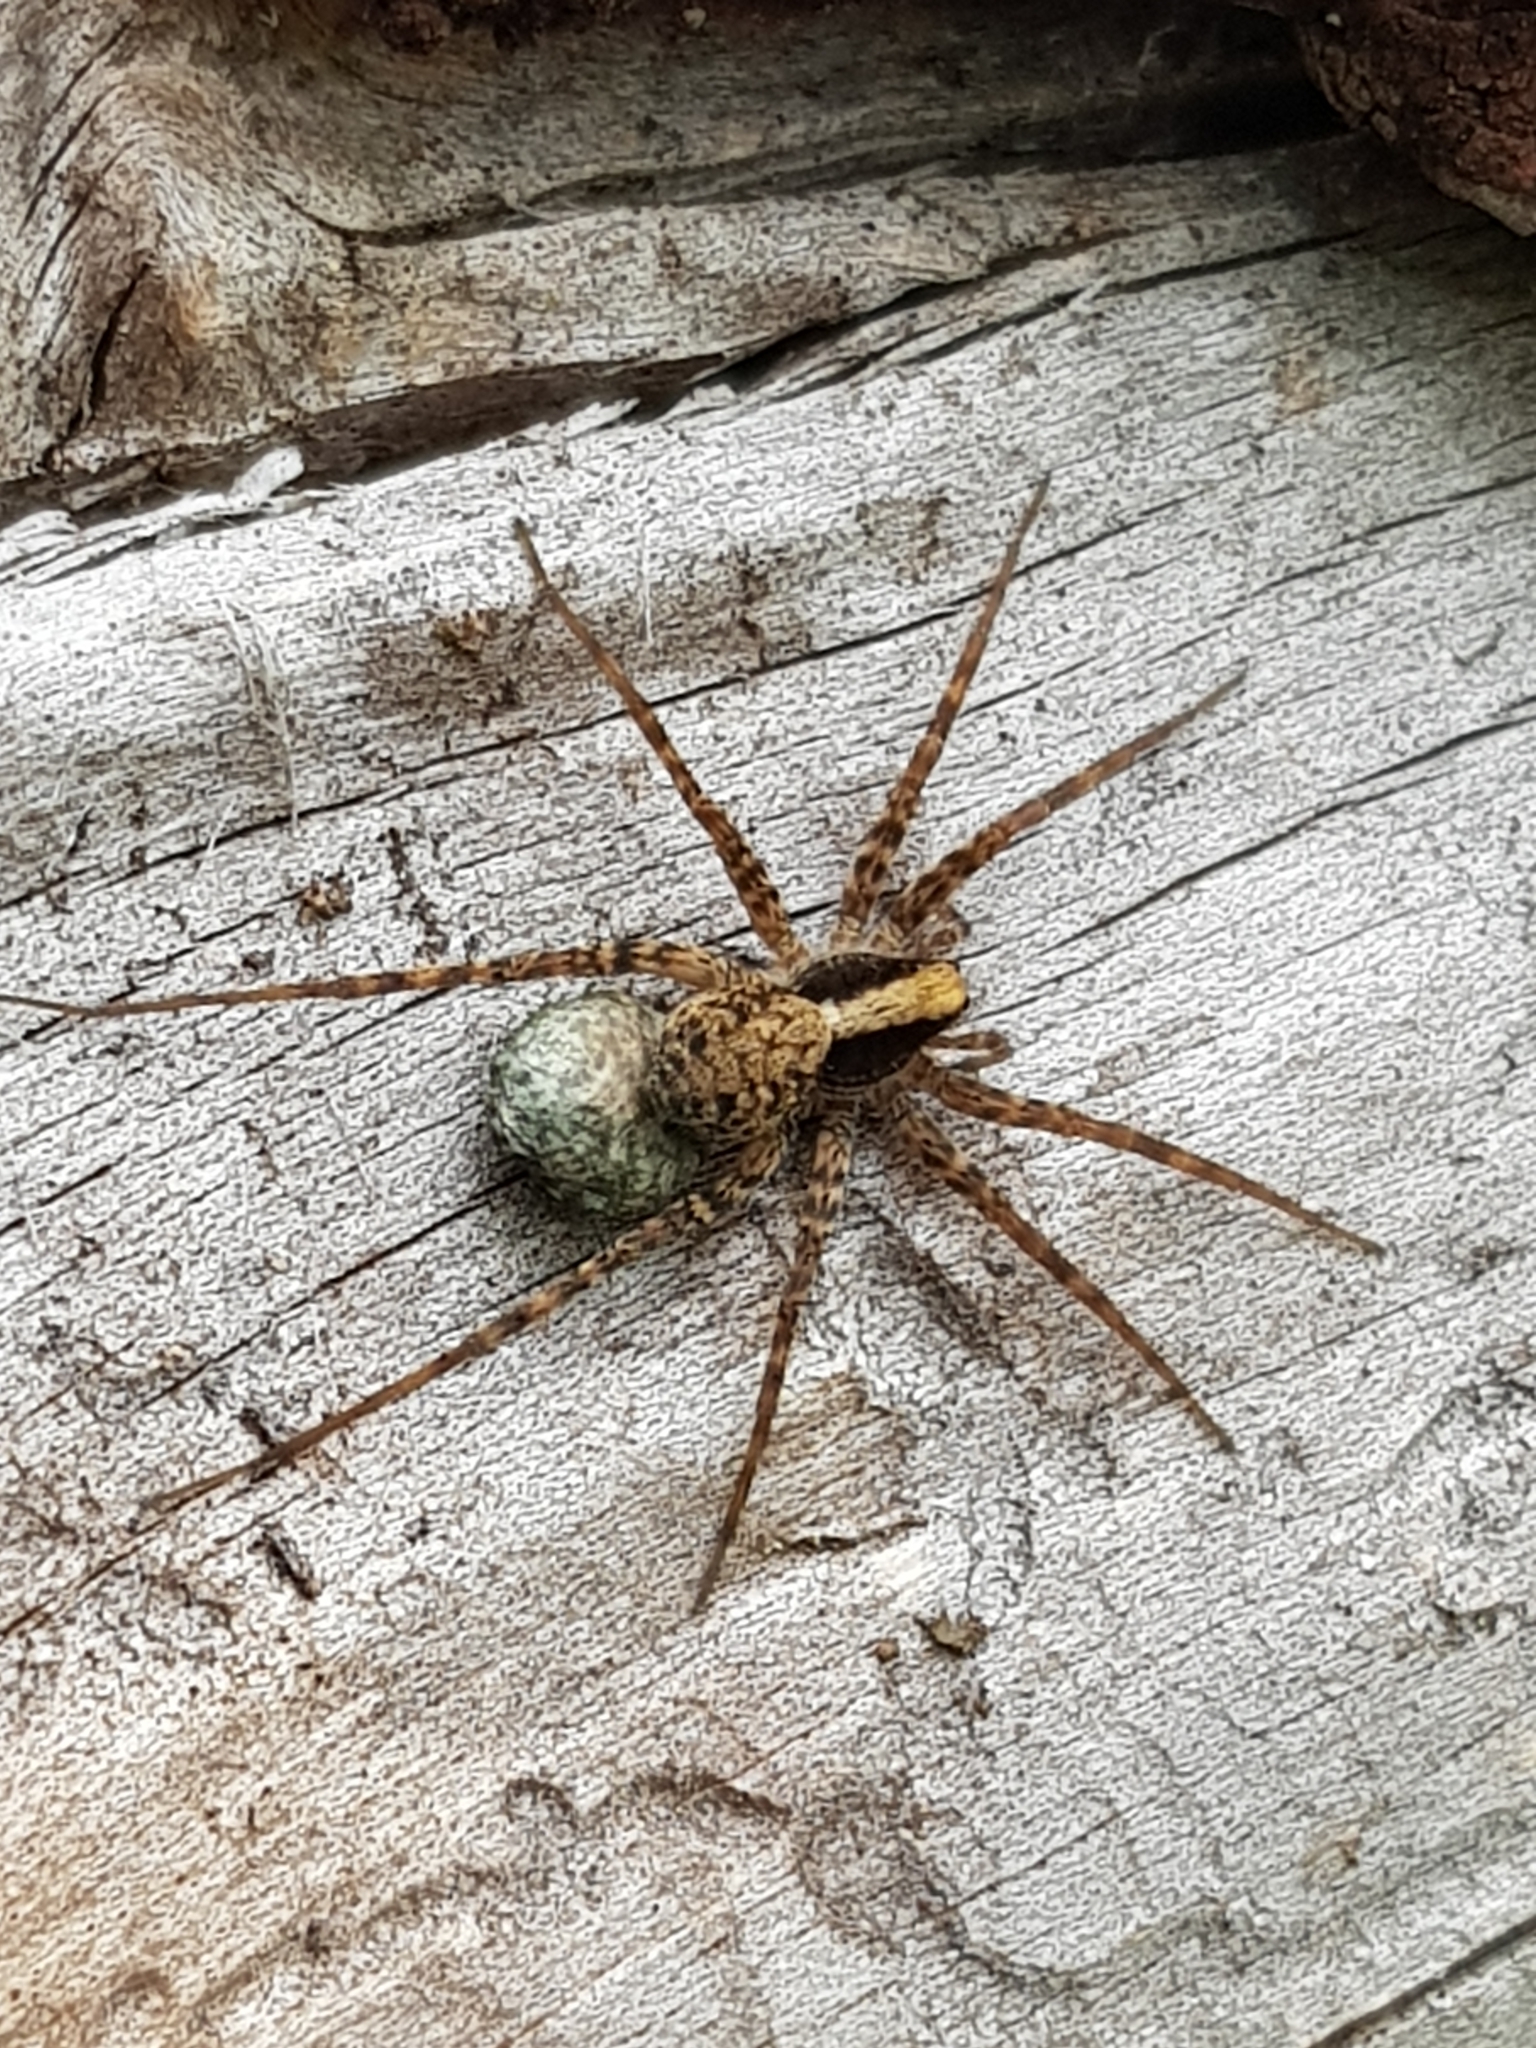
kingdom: Animalia
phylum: Arthropoda
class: Arachnida
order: Araneae
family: Lycosidae
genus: Pardosa
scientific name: Pardosa
